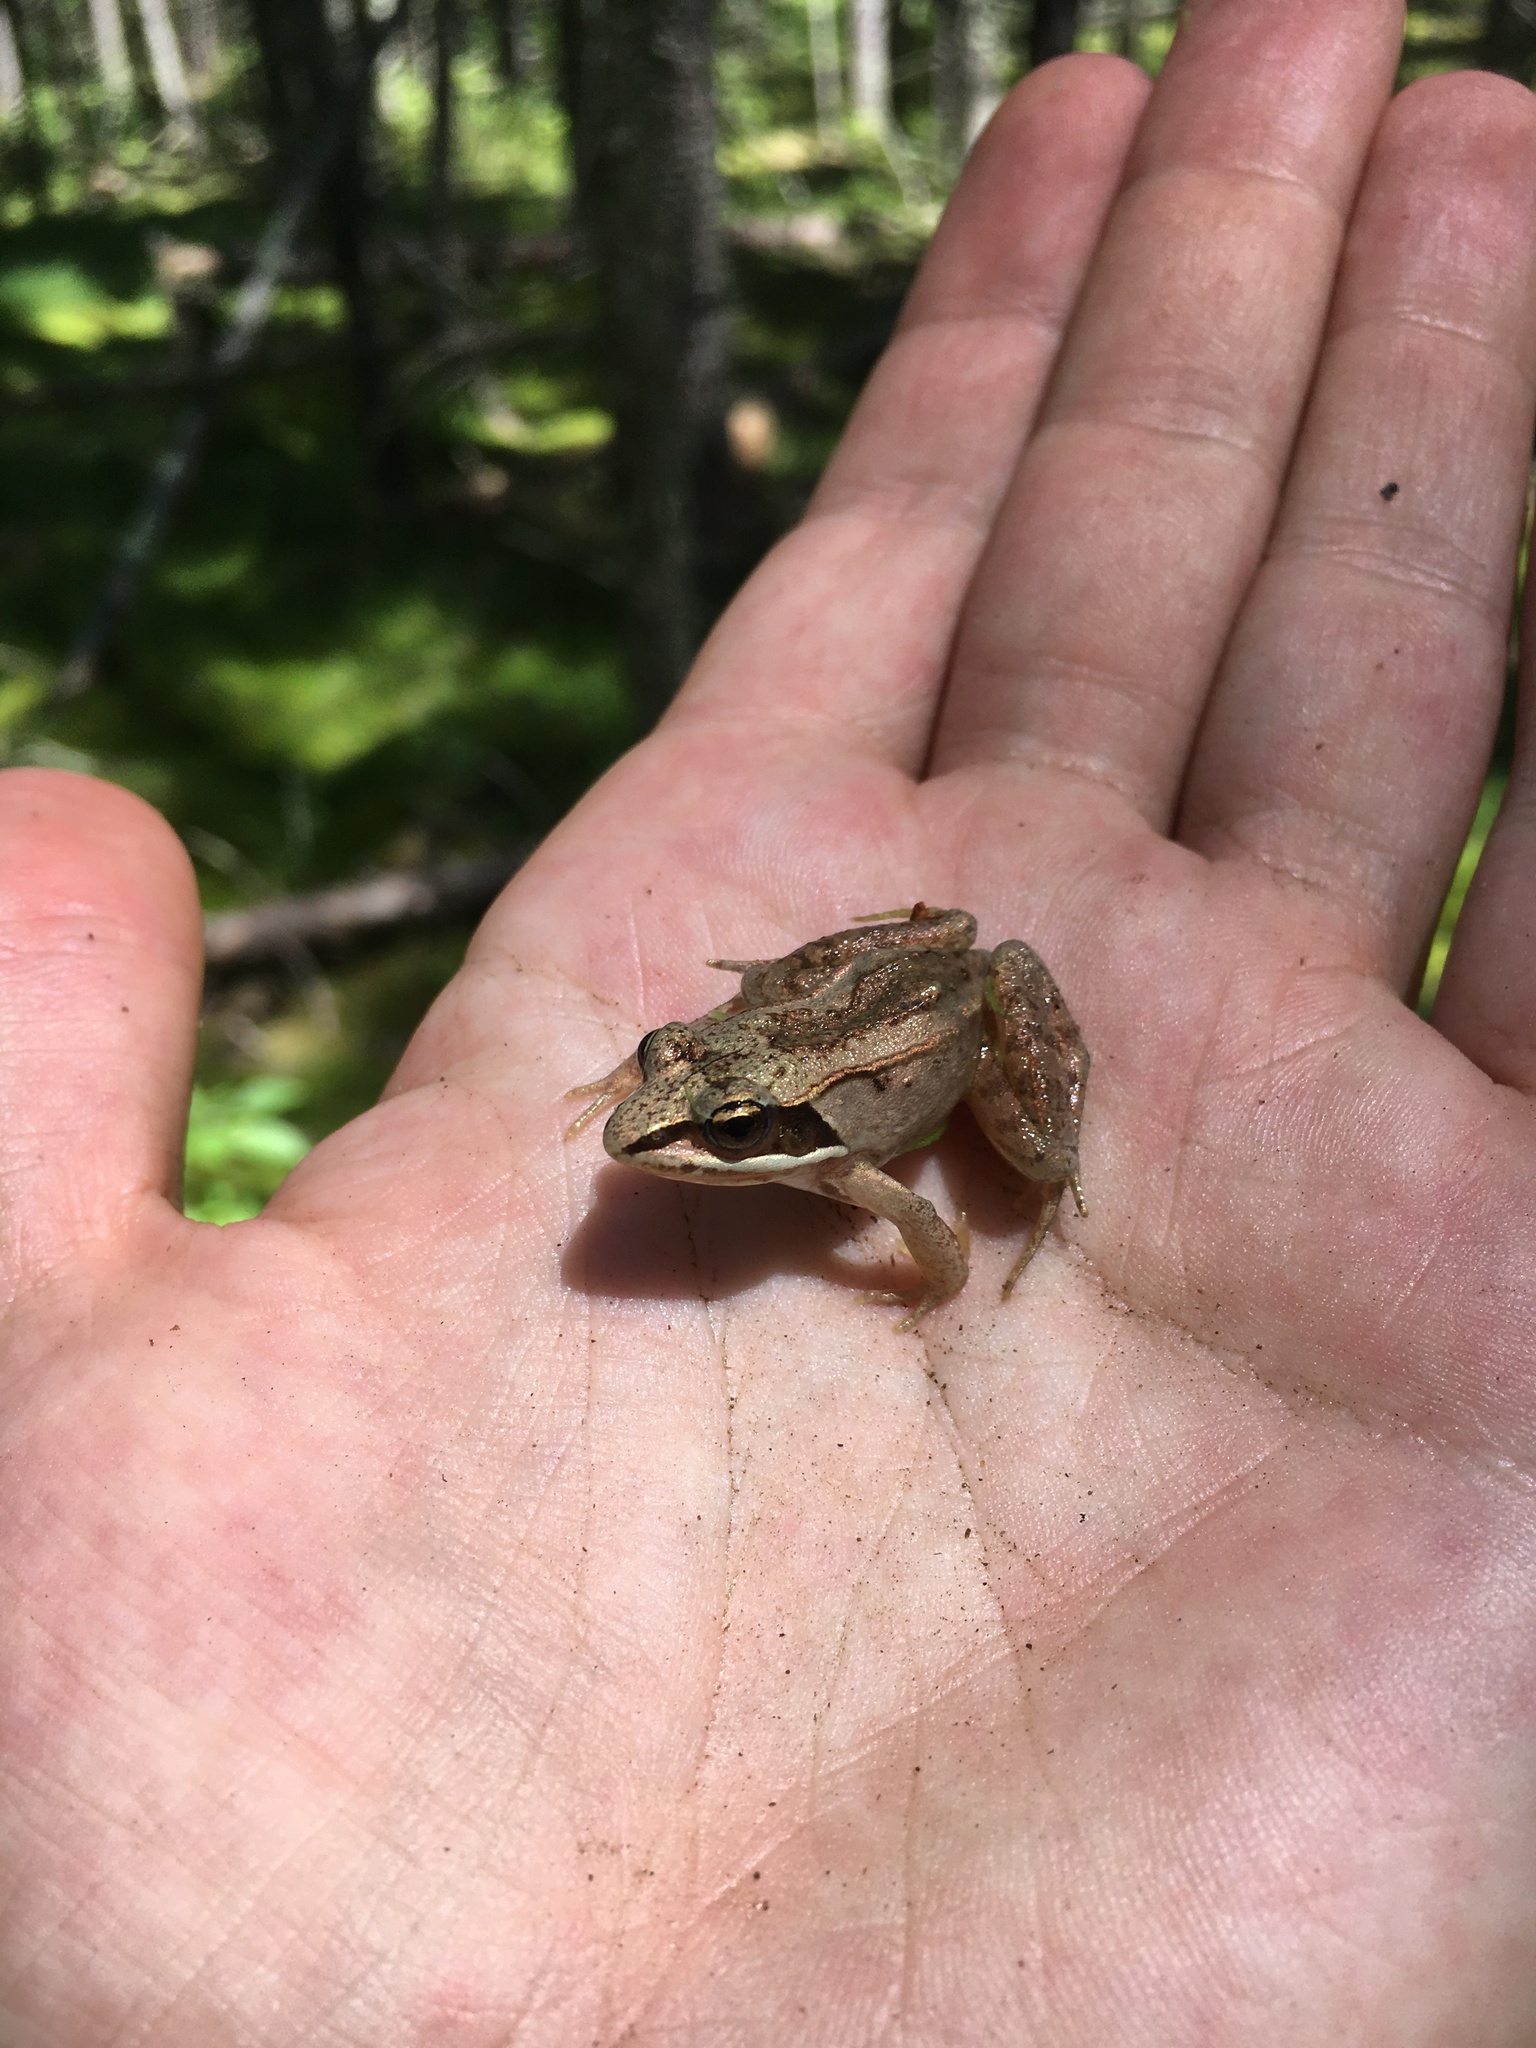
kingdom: Animalia
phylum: Chordata
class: Amphibia
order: Anura
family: Ranidae
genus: Lithobates
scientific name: Lithobates sylvaticus
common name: Wood frog
